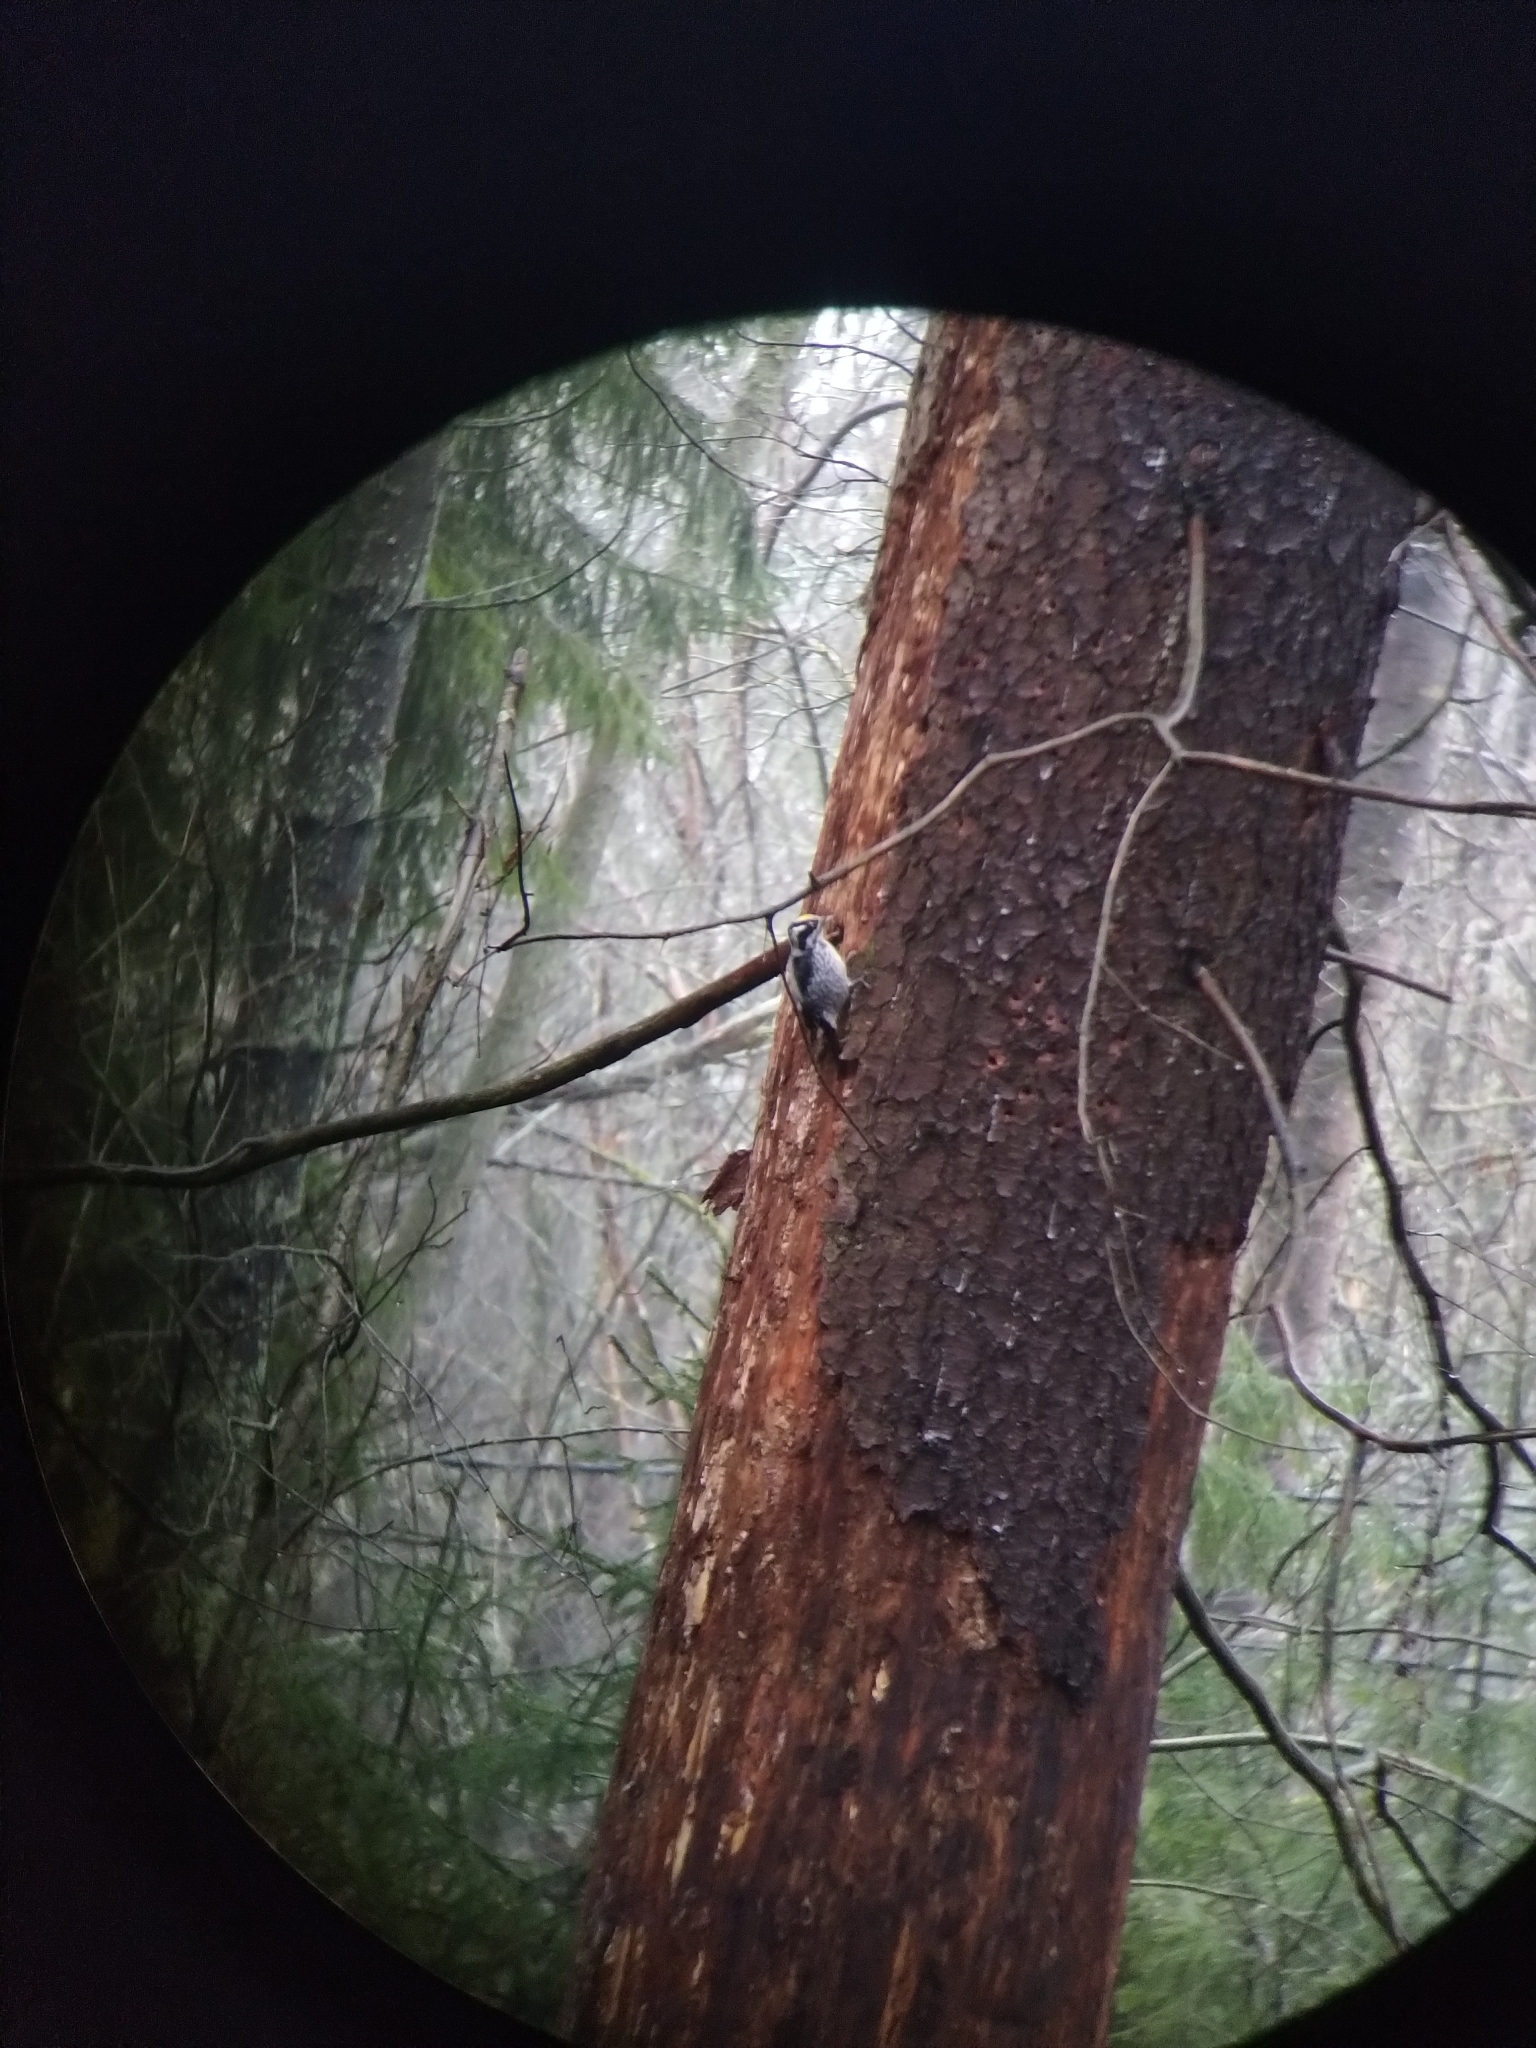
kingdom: Animalia
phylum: Chordata
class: Aves
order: Piciformes
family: Picidae
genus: Picoides
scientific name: Picoides tridactylus
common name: Eurasian three-toed woodpecker
